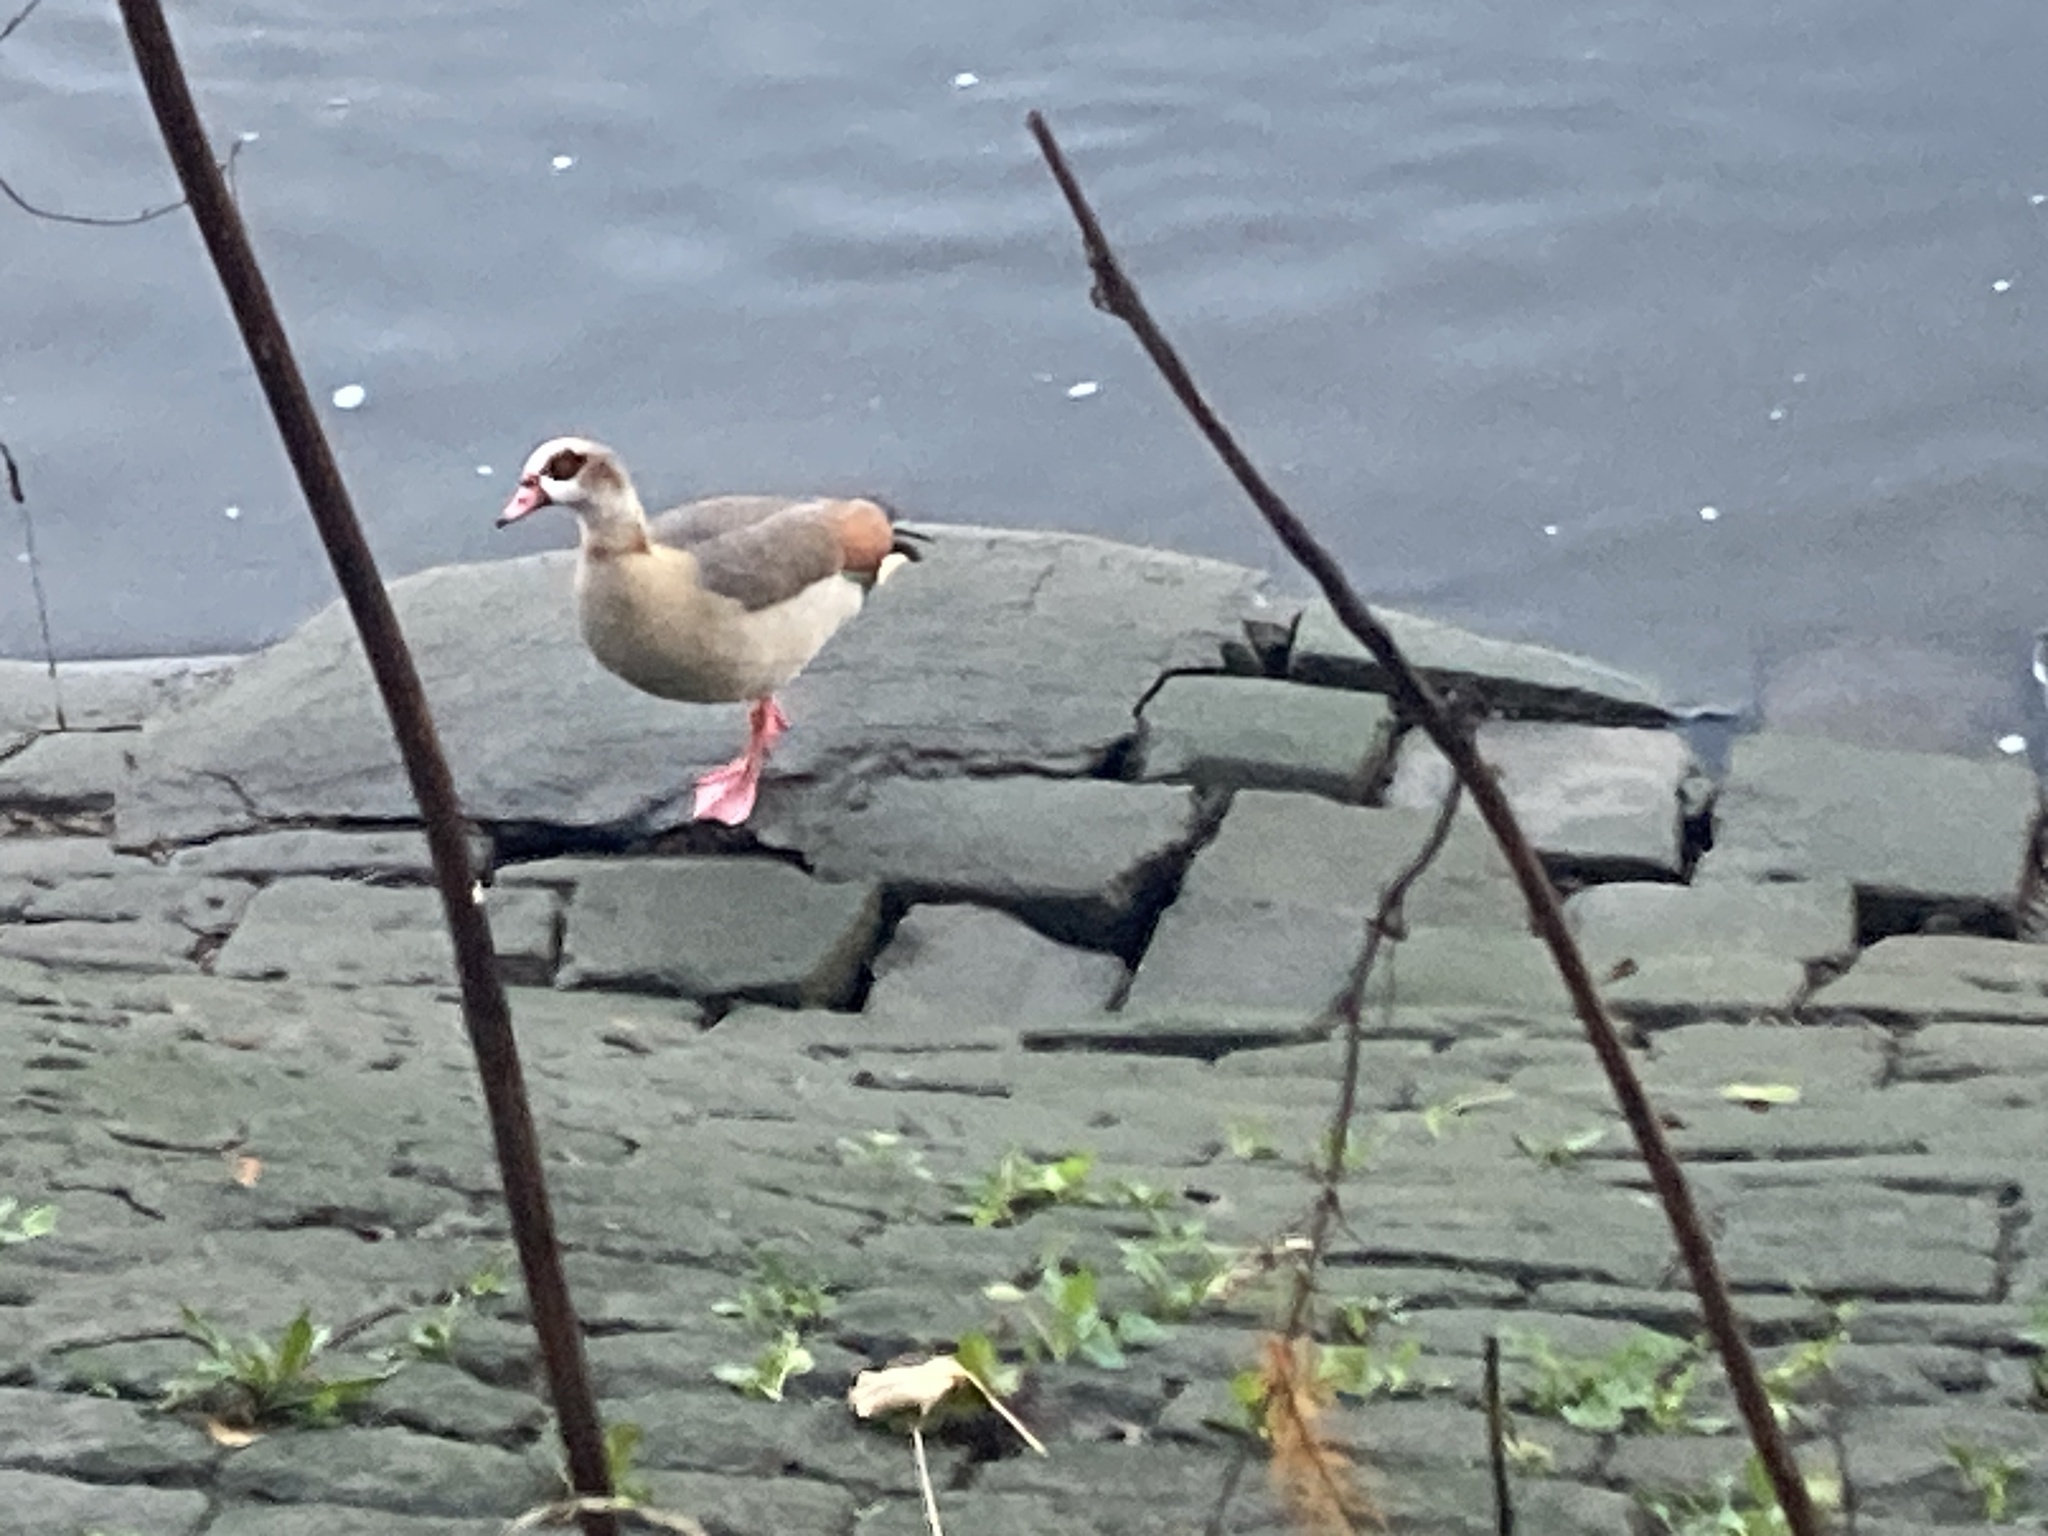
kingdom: Animalia
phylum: Chordata
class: Aves
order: Anseriformes
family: Anatidae
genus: Alopochen
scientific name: Alopochen aegyptiaca
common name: Egyptian goose
